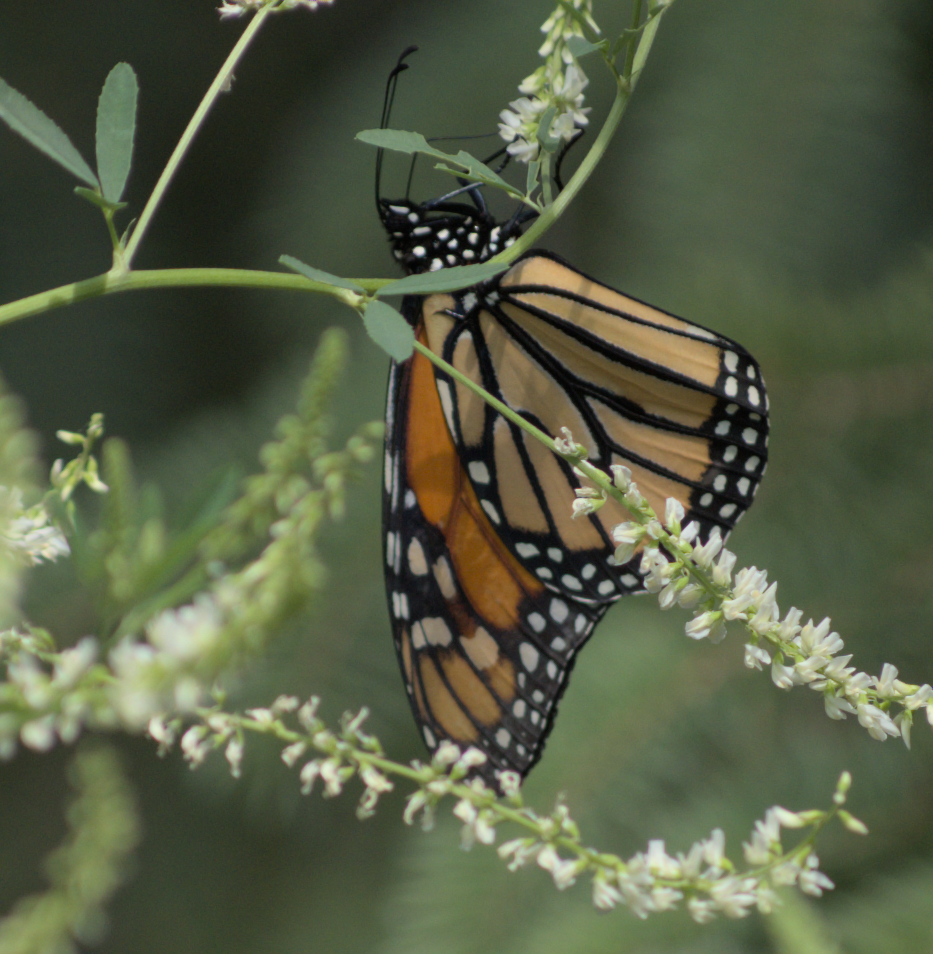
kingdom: Animalia
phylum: Arthropoda
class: Insecta
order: Lepidoptera
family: Nymphalidae
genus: Danaus
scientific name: Danaus plexippus
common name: Monarch
